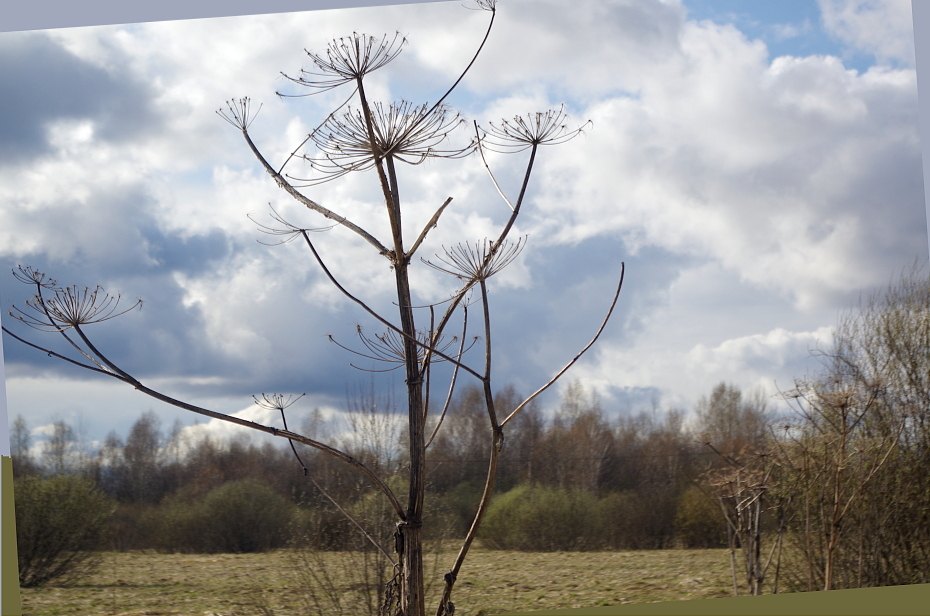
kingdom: Plantae
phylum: Tracheophyta
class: Magnoliopsida
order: Apiales
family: Apiaceae
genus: Heracleum
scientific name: Heracleum sosnowskyi
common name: Sosnowsky's hogweed
